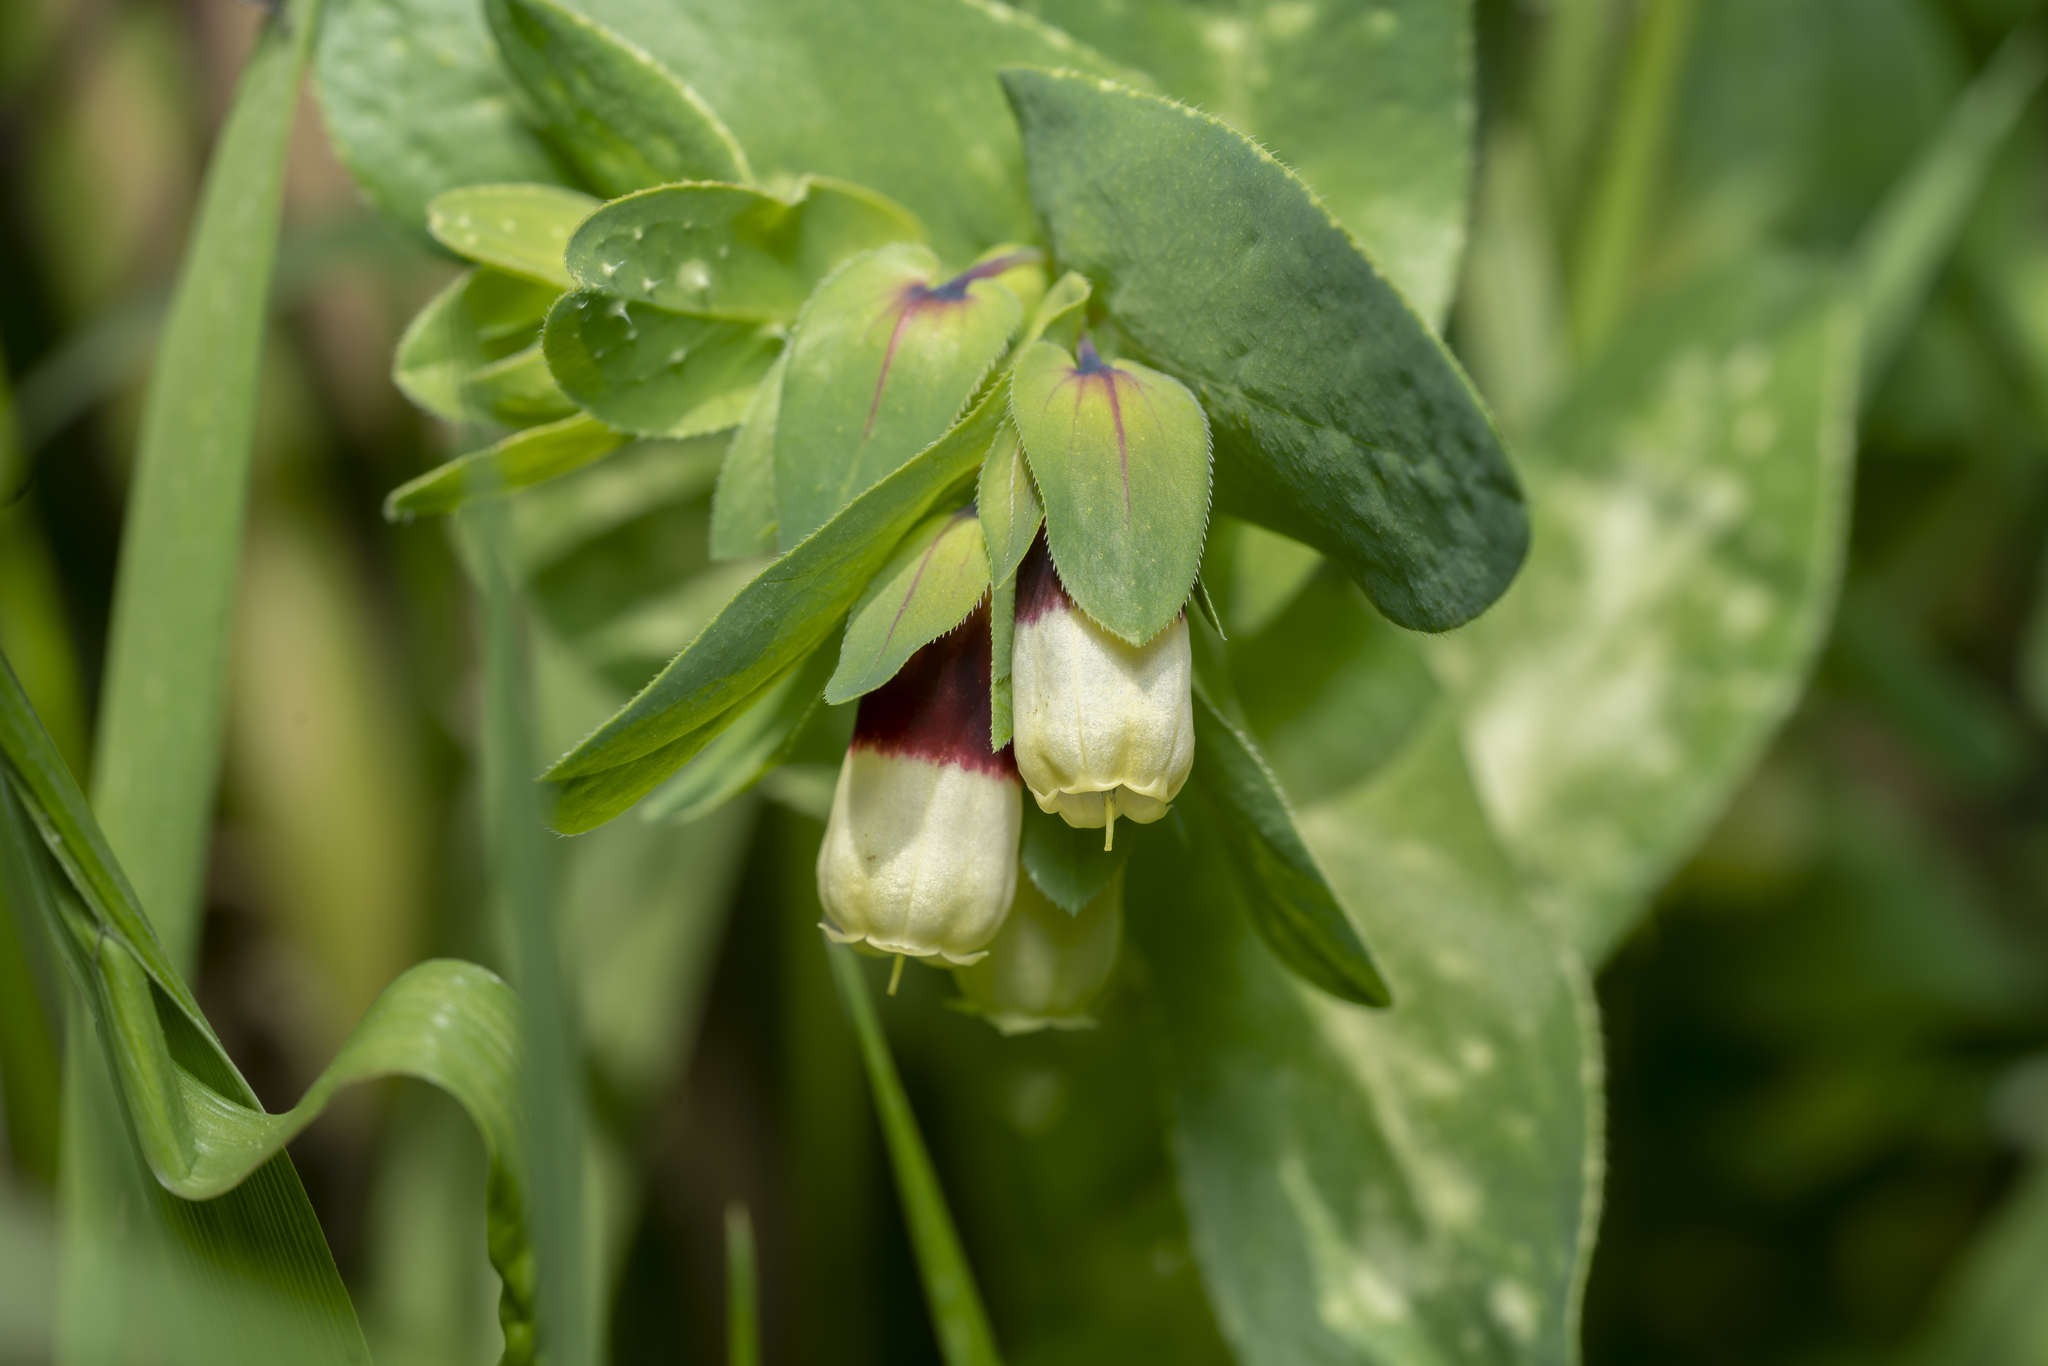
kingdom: Plantae
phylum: Tracheophyta
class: Magnoliopsida
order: Boraginales
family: Boraginaceae
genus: Cerinthe
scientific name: Cerinthe major
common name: Greater honeywort
